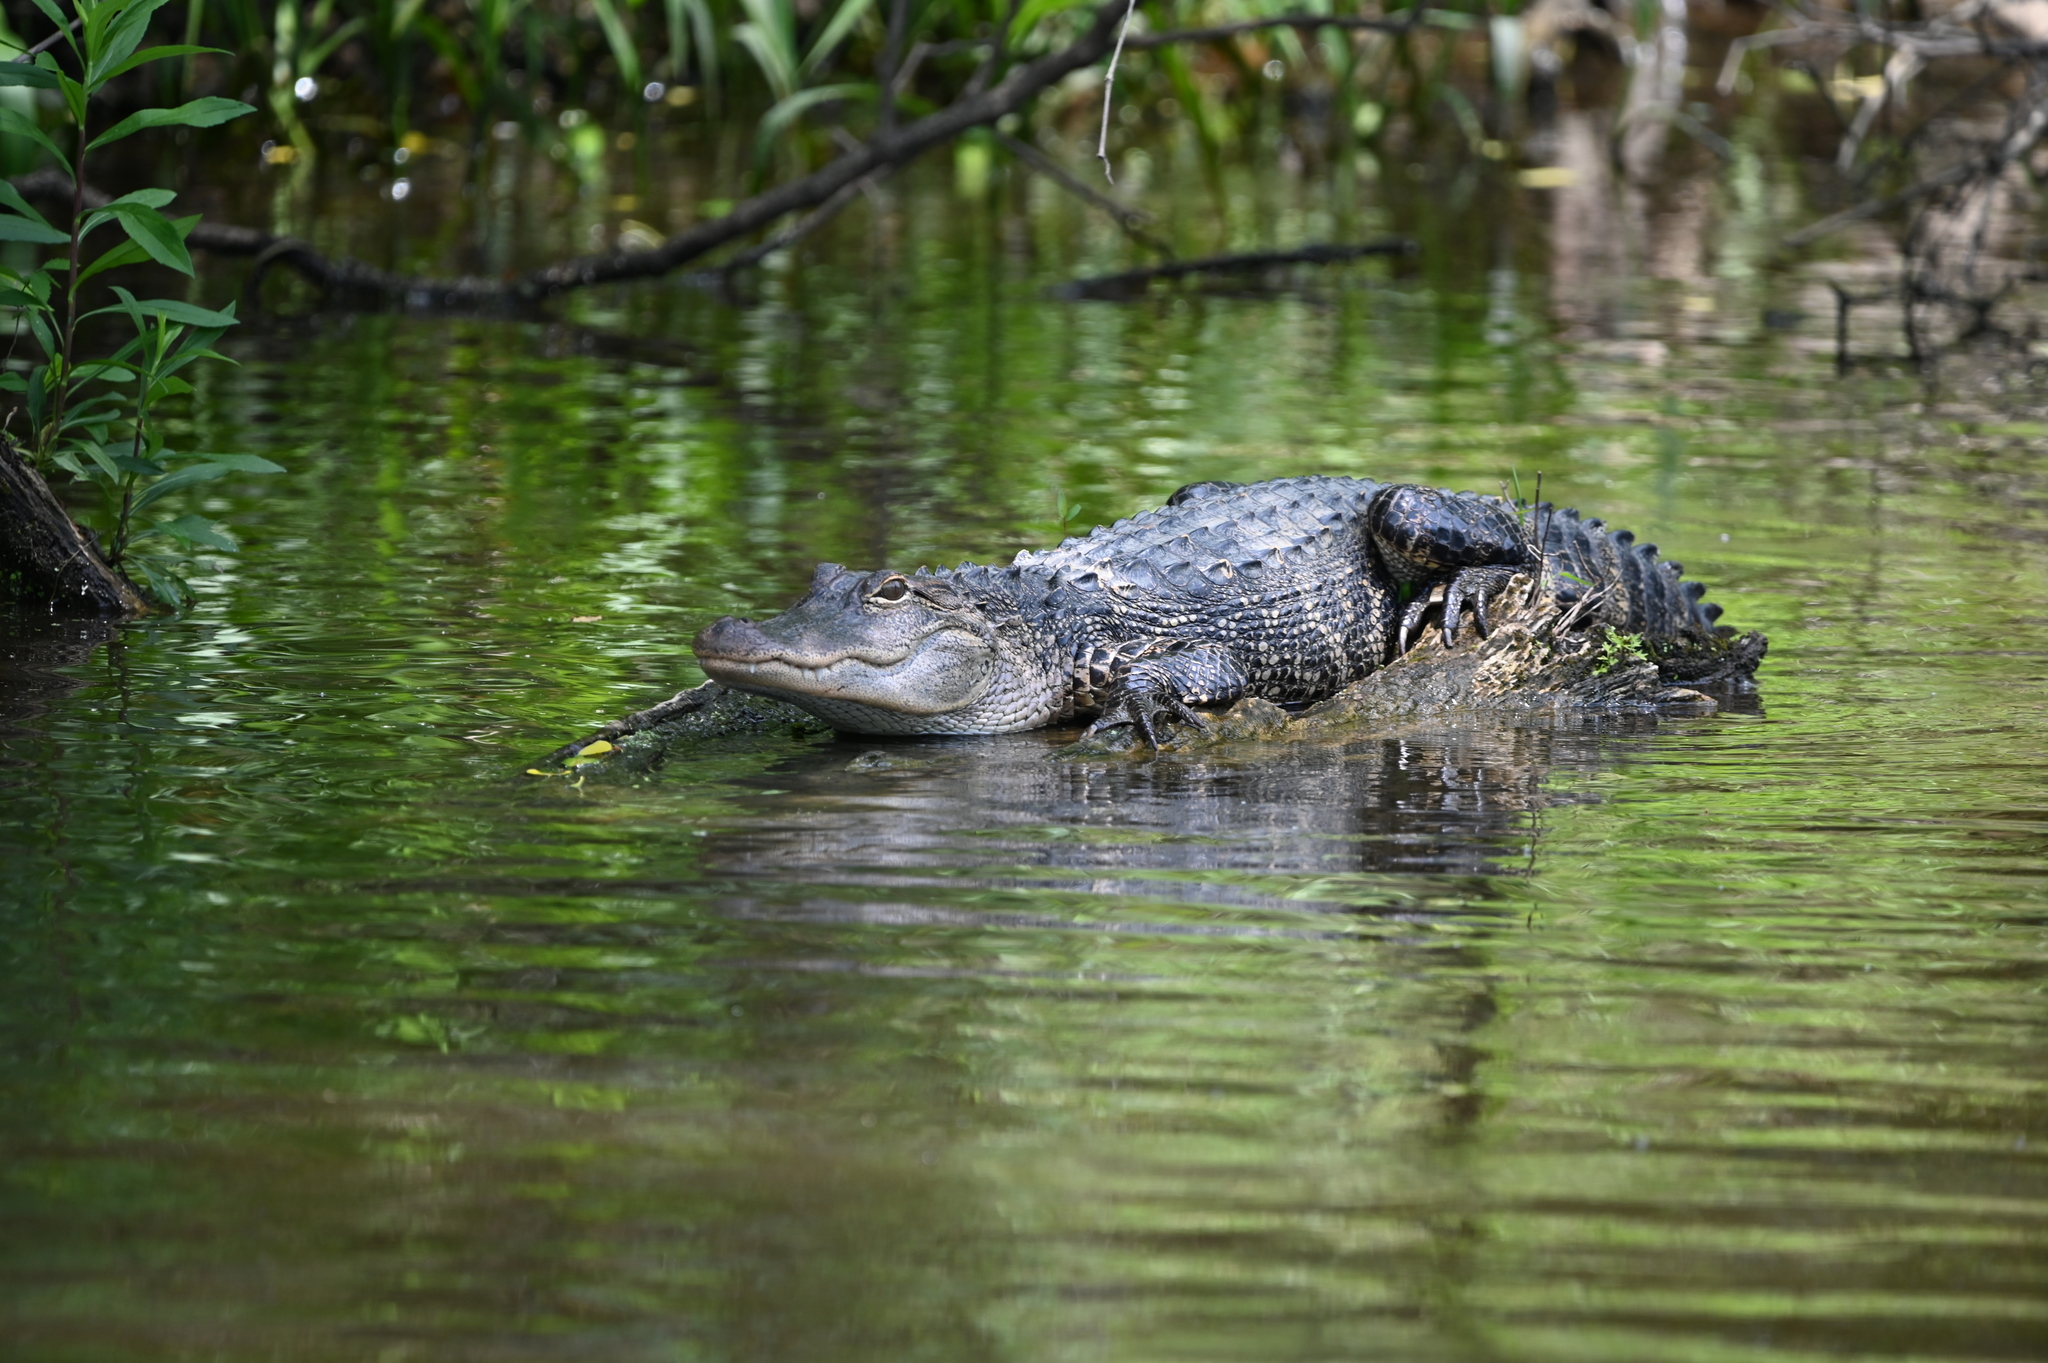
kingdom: Animalia
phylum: Chordata
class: Crocodylia
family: Alligatoridae
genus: Alligator
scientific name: Alligator mississippiensis
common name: American alligator
